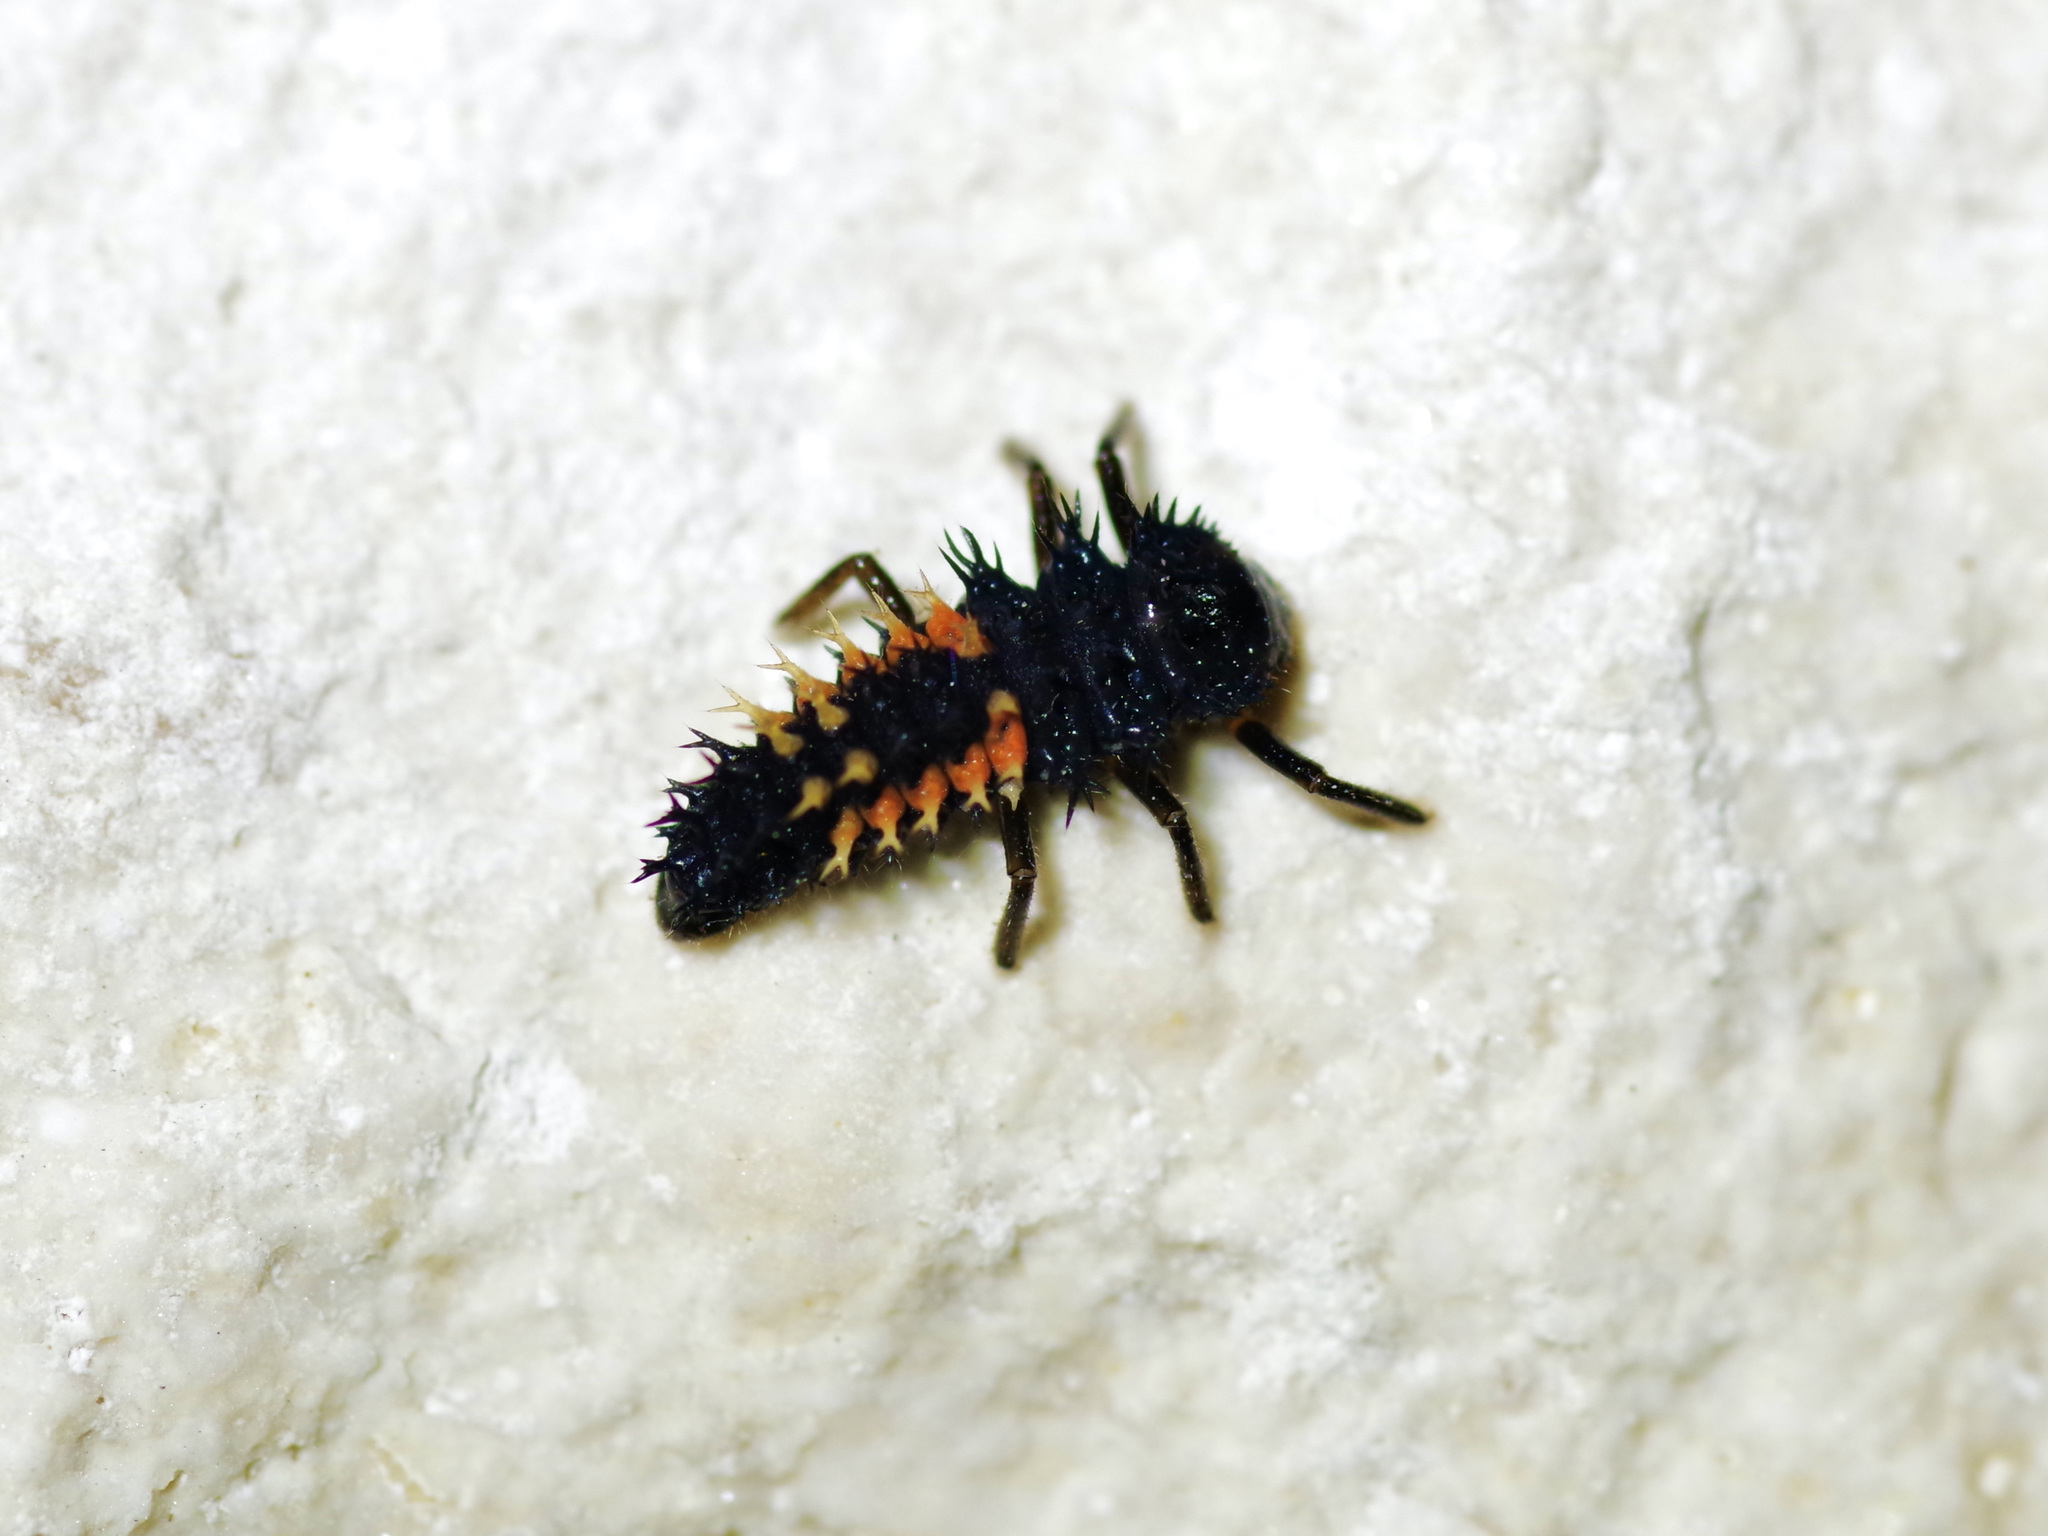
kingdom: Animalia
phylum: Arthropoda
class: Insecta
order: Coleoptera
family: Coccinellidae
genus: Harmonia
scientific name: Harmonia axyridis
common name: Harlequin ladybird
